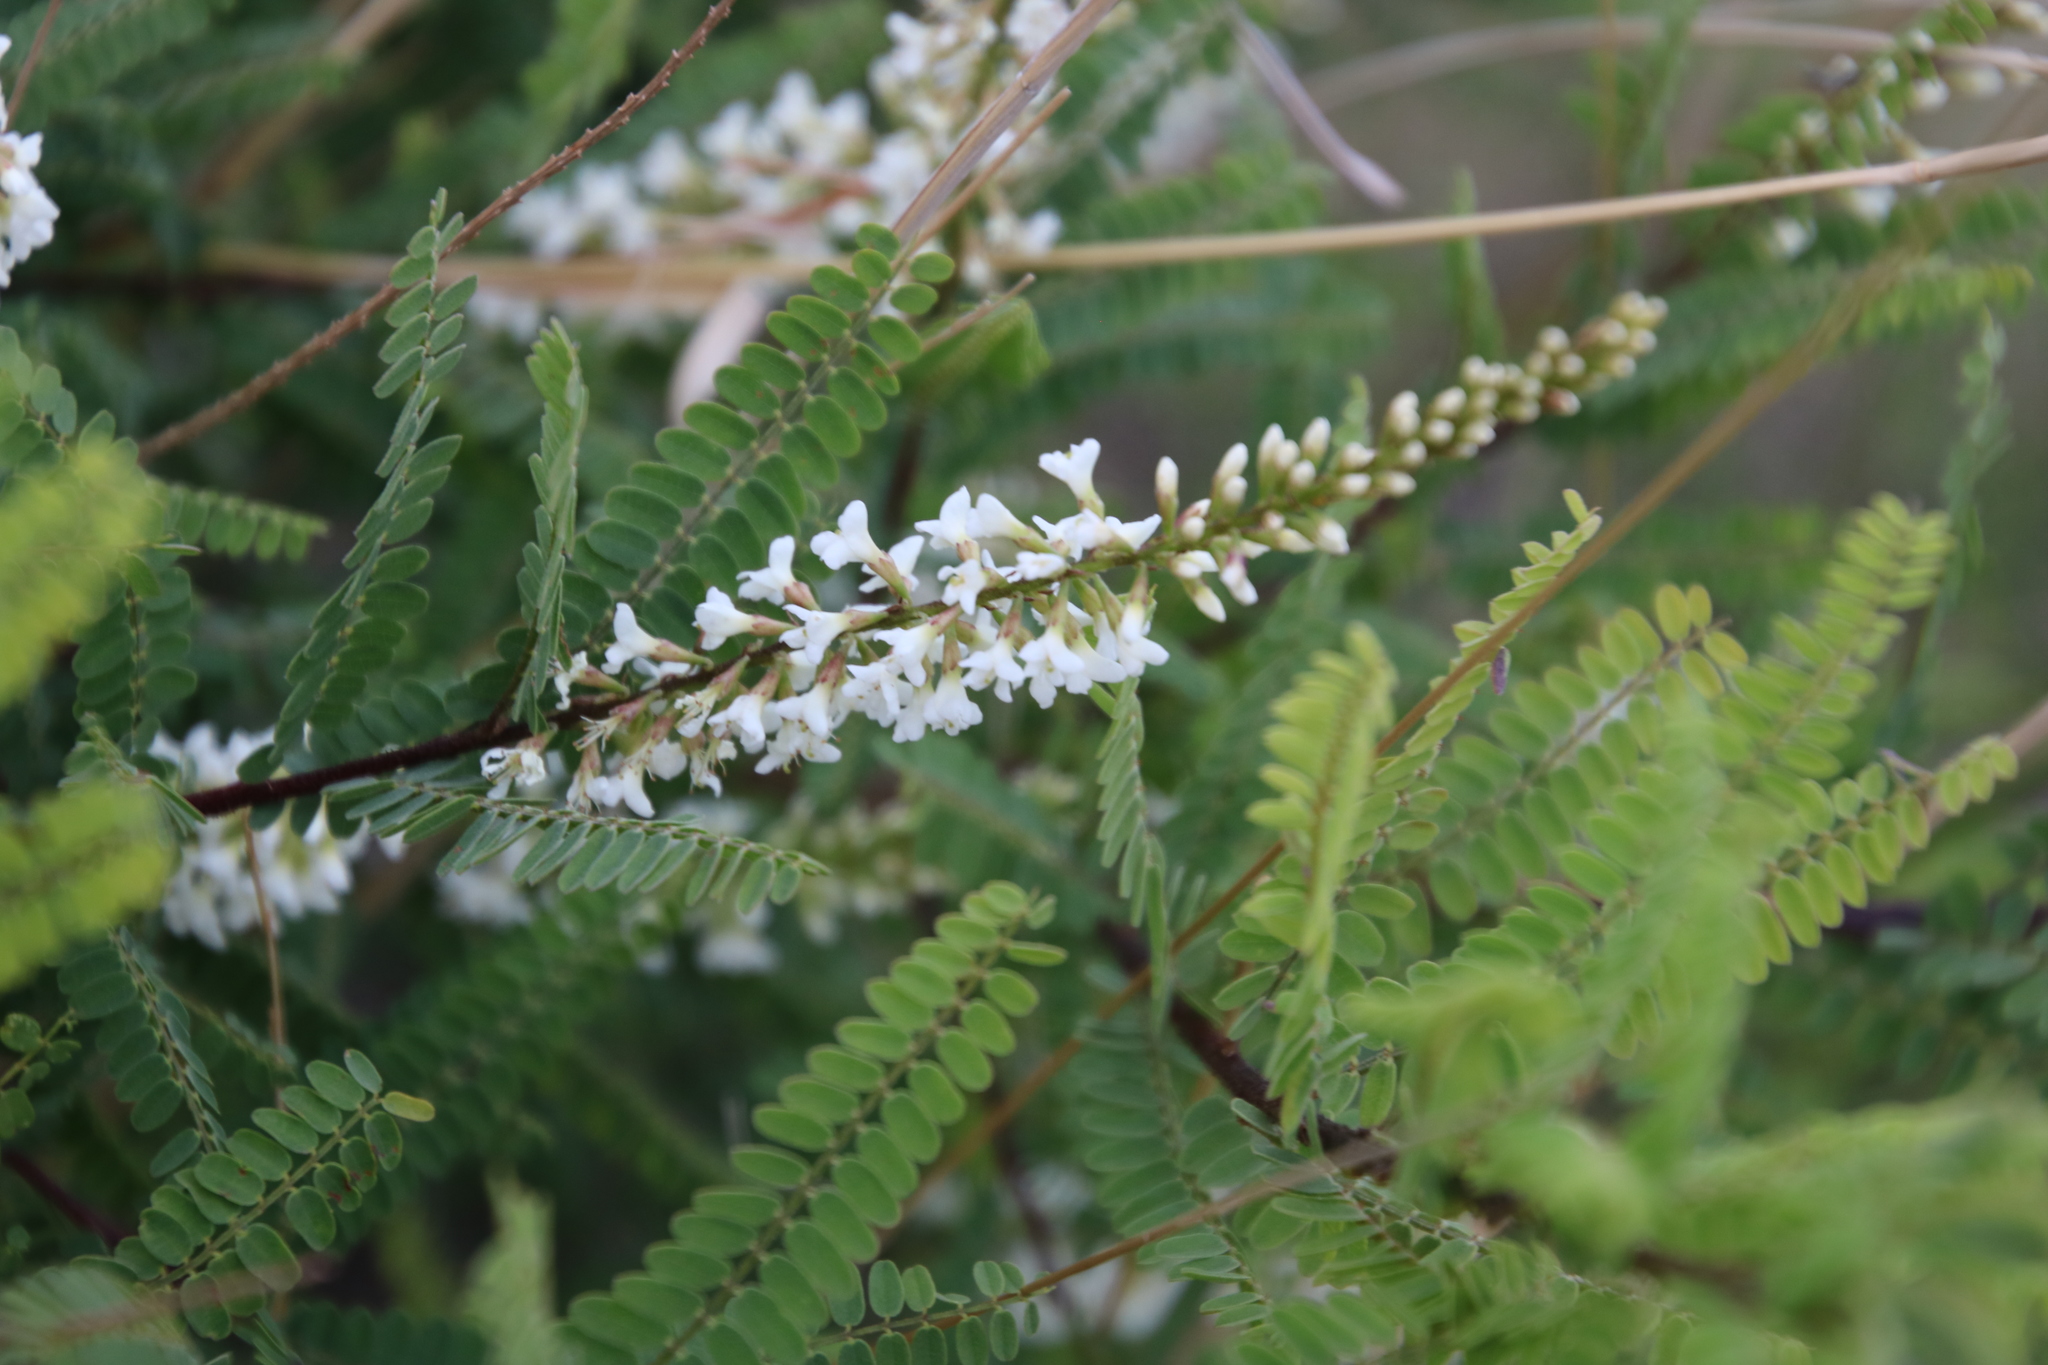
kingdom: Plantae
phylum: Tracheophyta
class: Magnoliopsida
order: Fabales
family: Fabaceae
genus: Eysenhardtia
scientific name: Eysenhardtia polystachya
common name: Kidneywood
